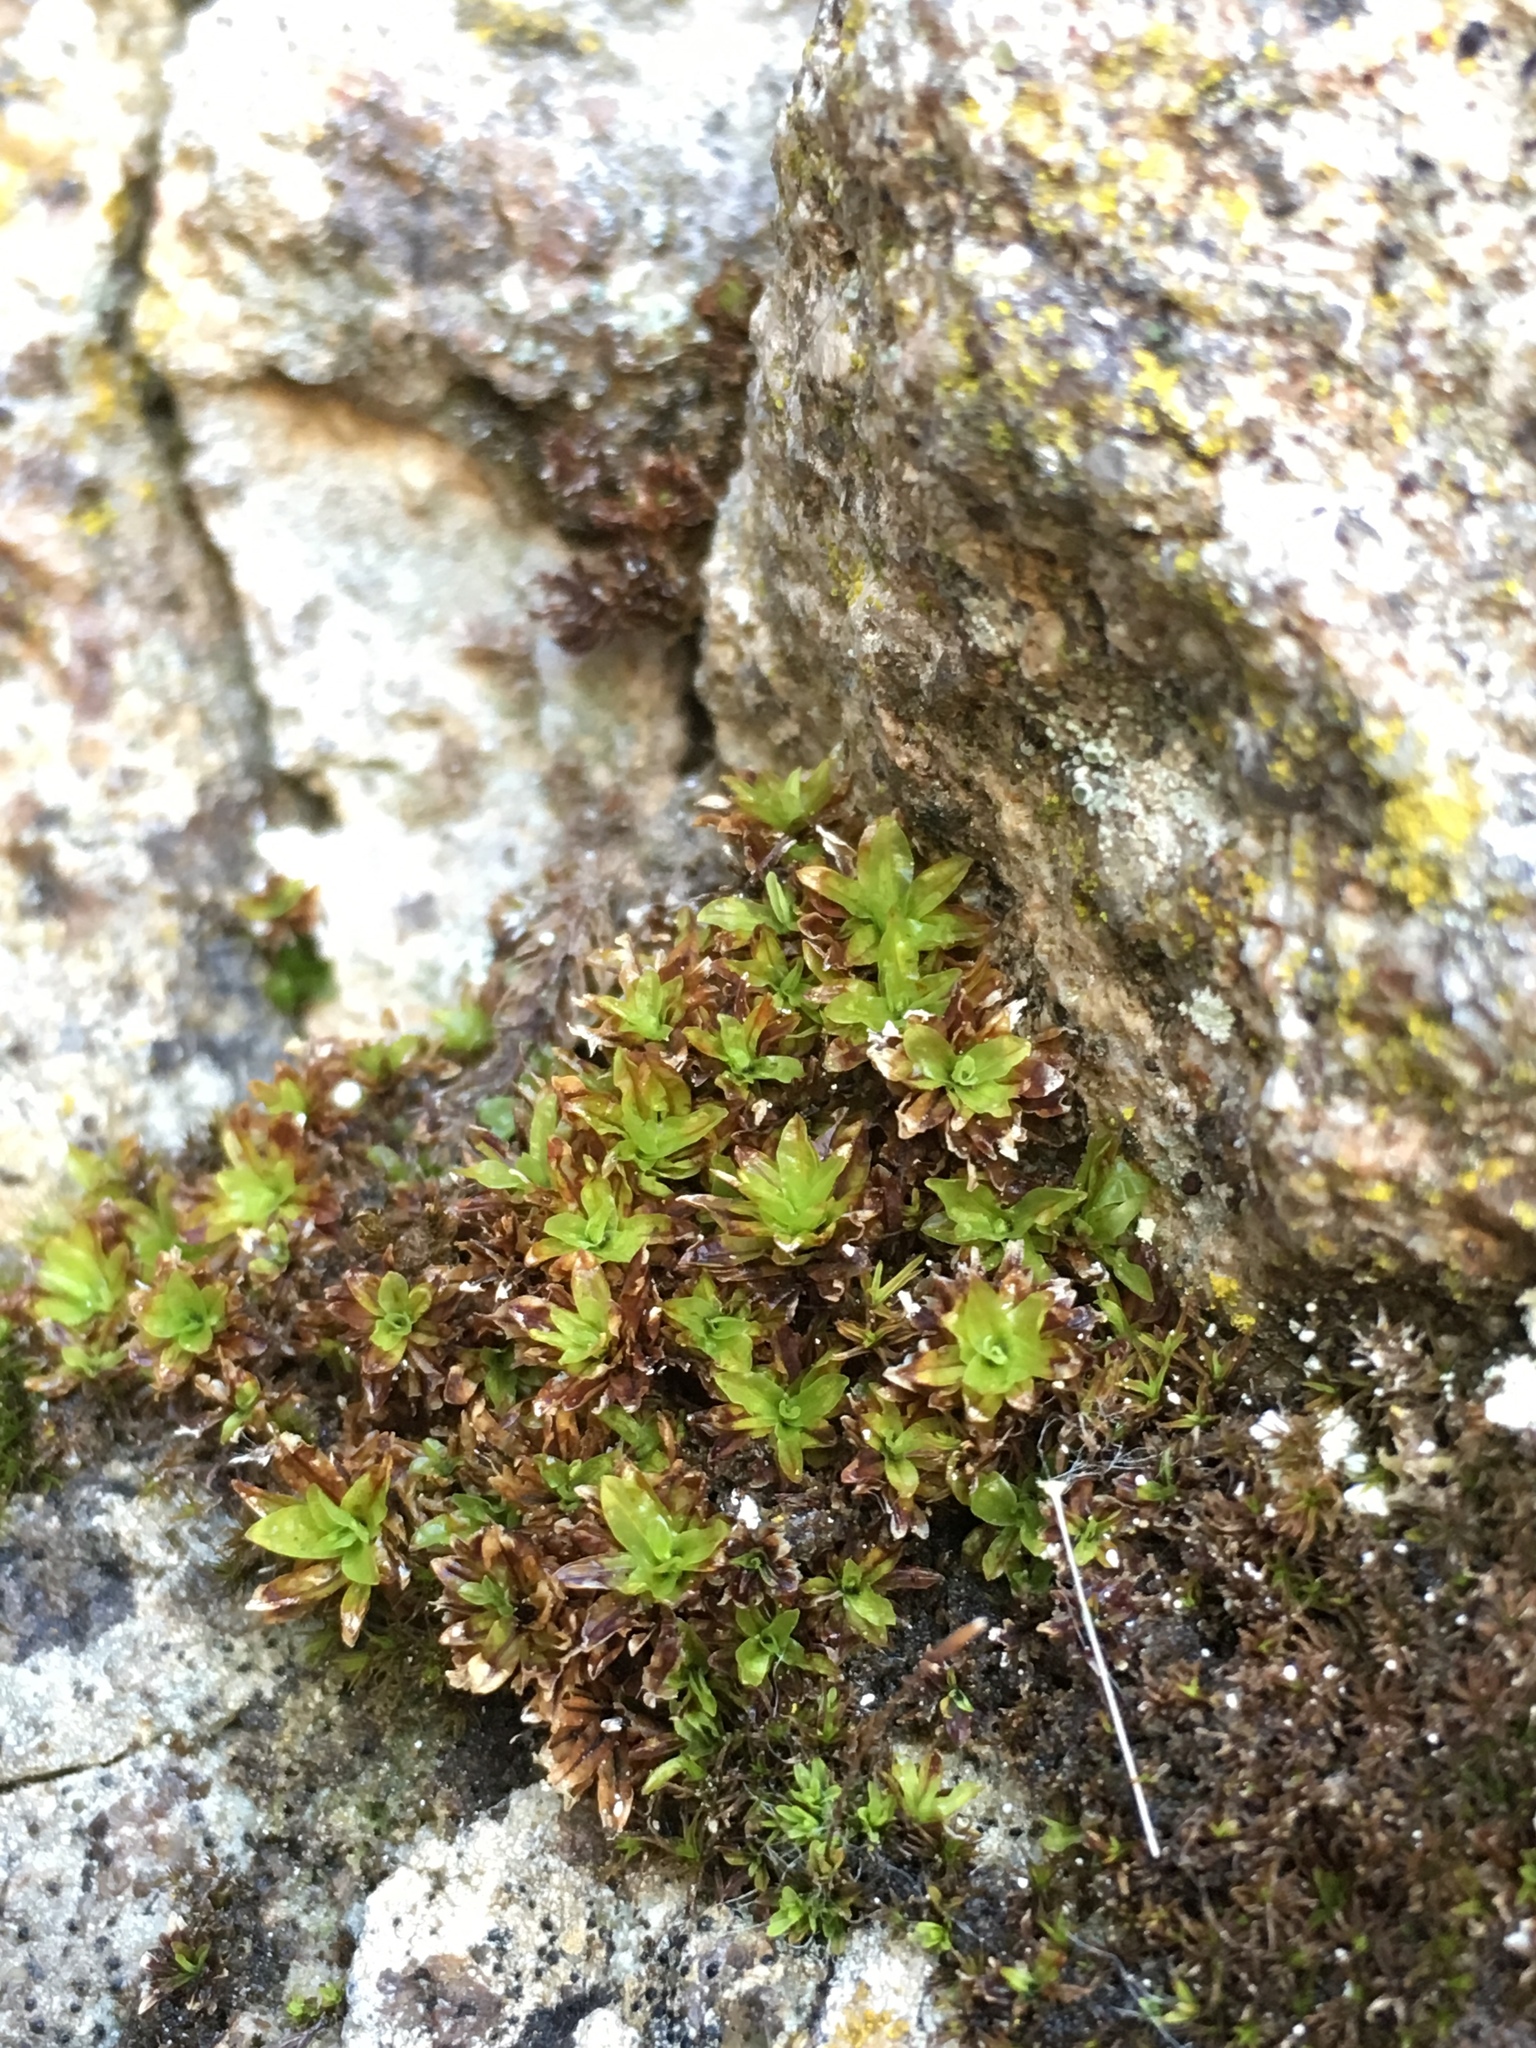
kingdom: Plantae
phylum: Bryophyta
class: Bryopsida
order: Pottiales
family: Pottiaceae
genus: Tortula
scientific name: Tortula muralis
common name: Wall screw-moss
